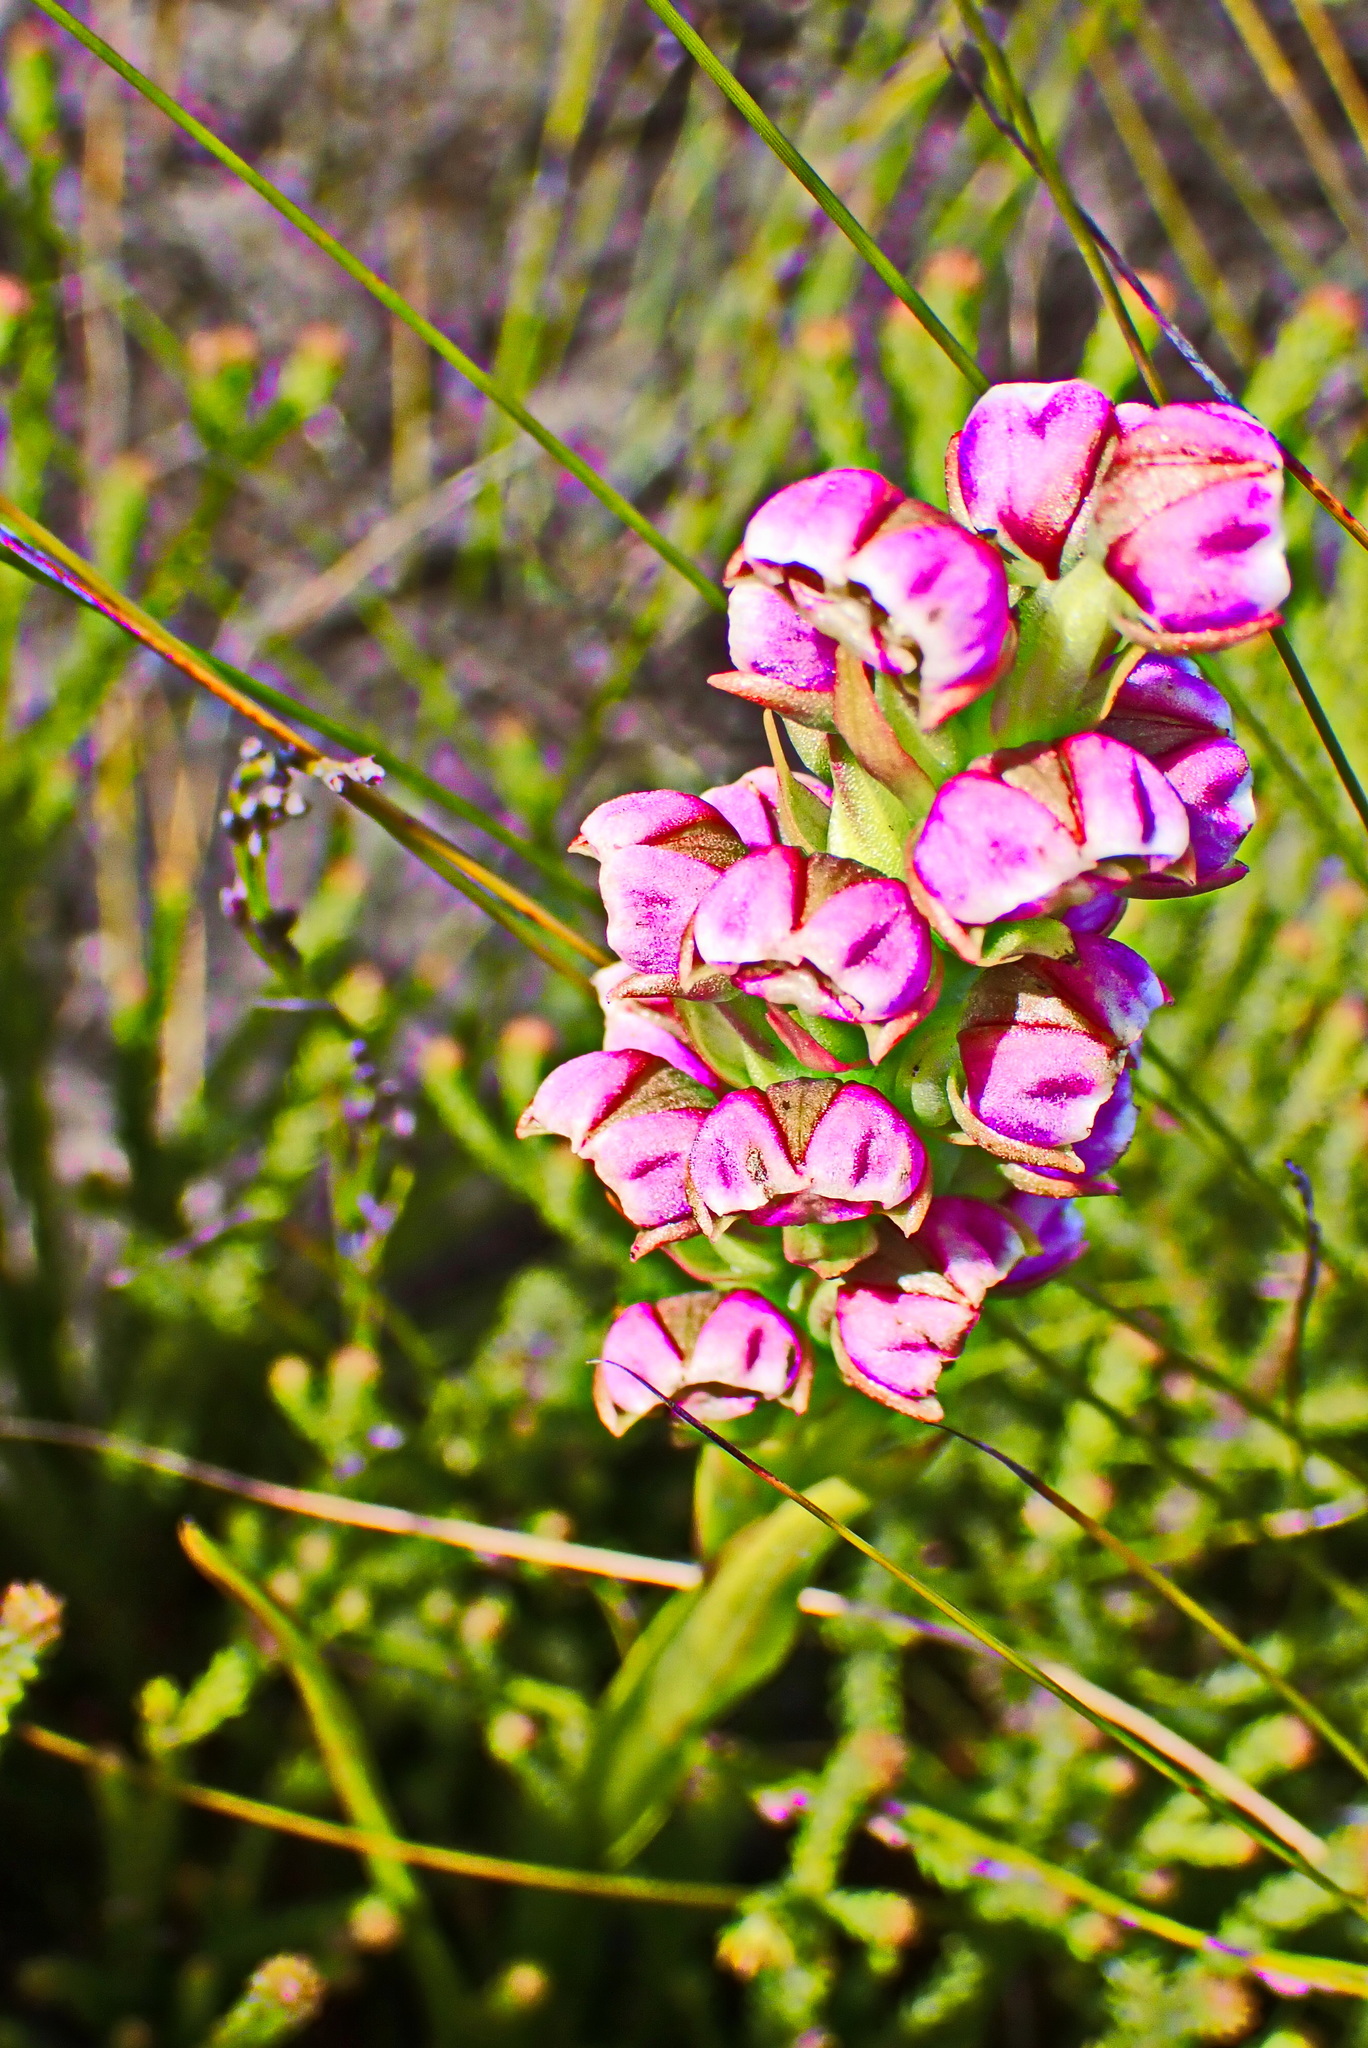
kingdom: Plantae
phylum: Tracheophyta
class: Liliopsida
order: Asparagales
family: Orchidaceae
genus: Evotella
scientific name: Evotella carnosa
